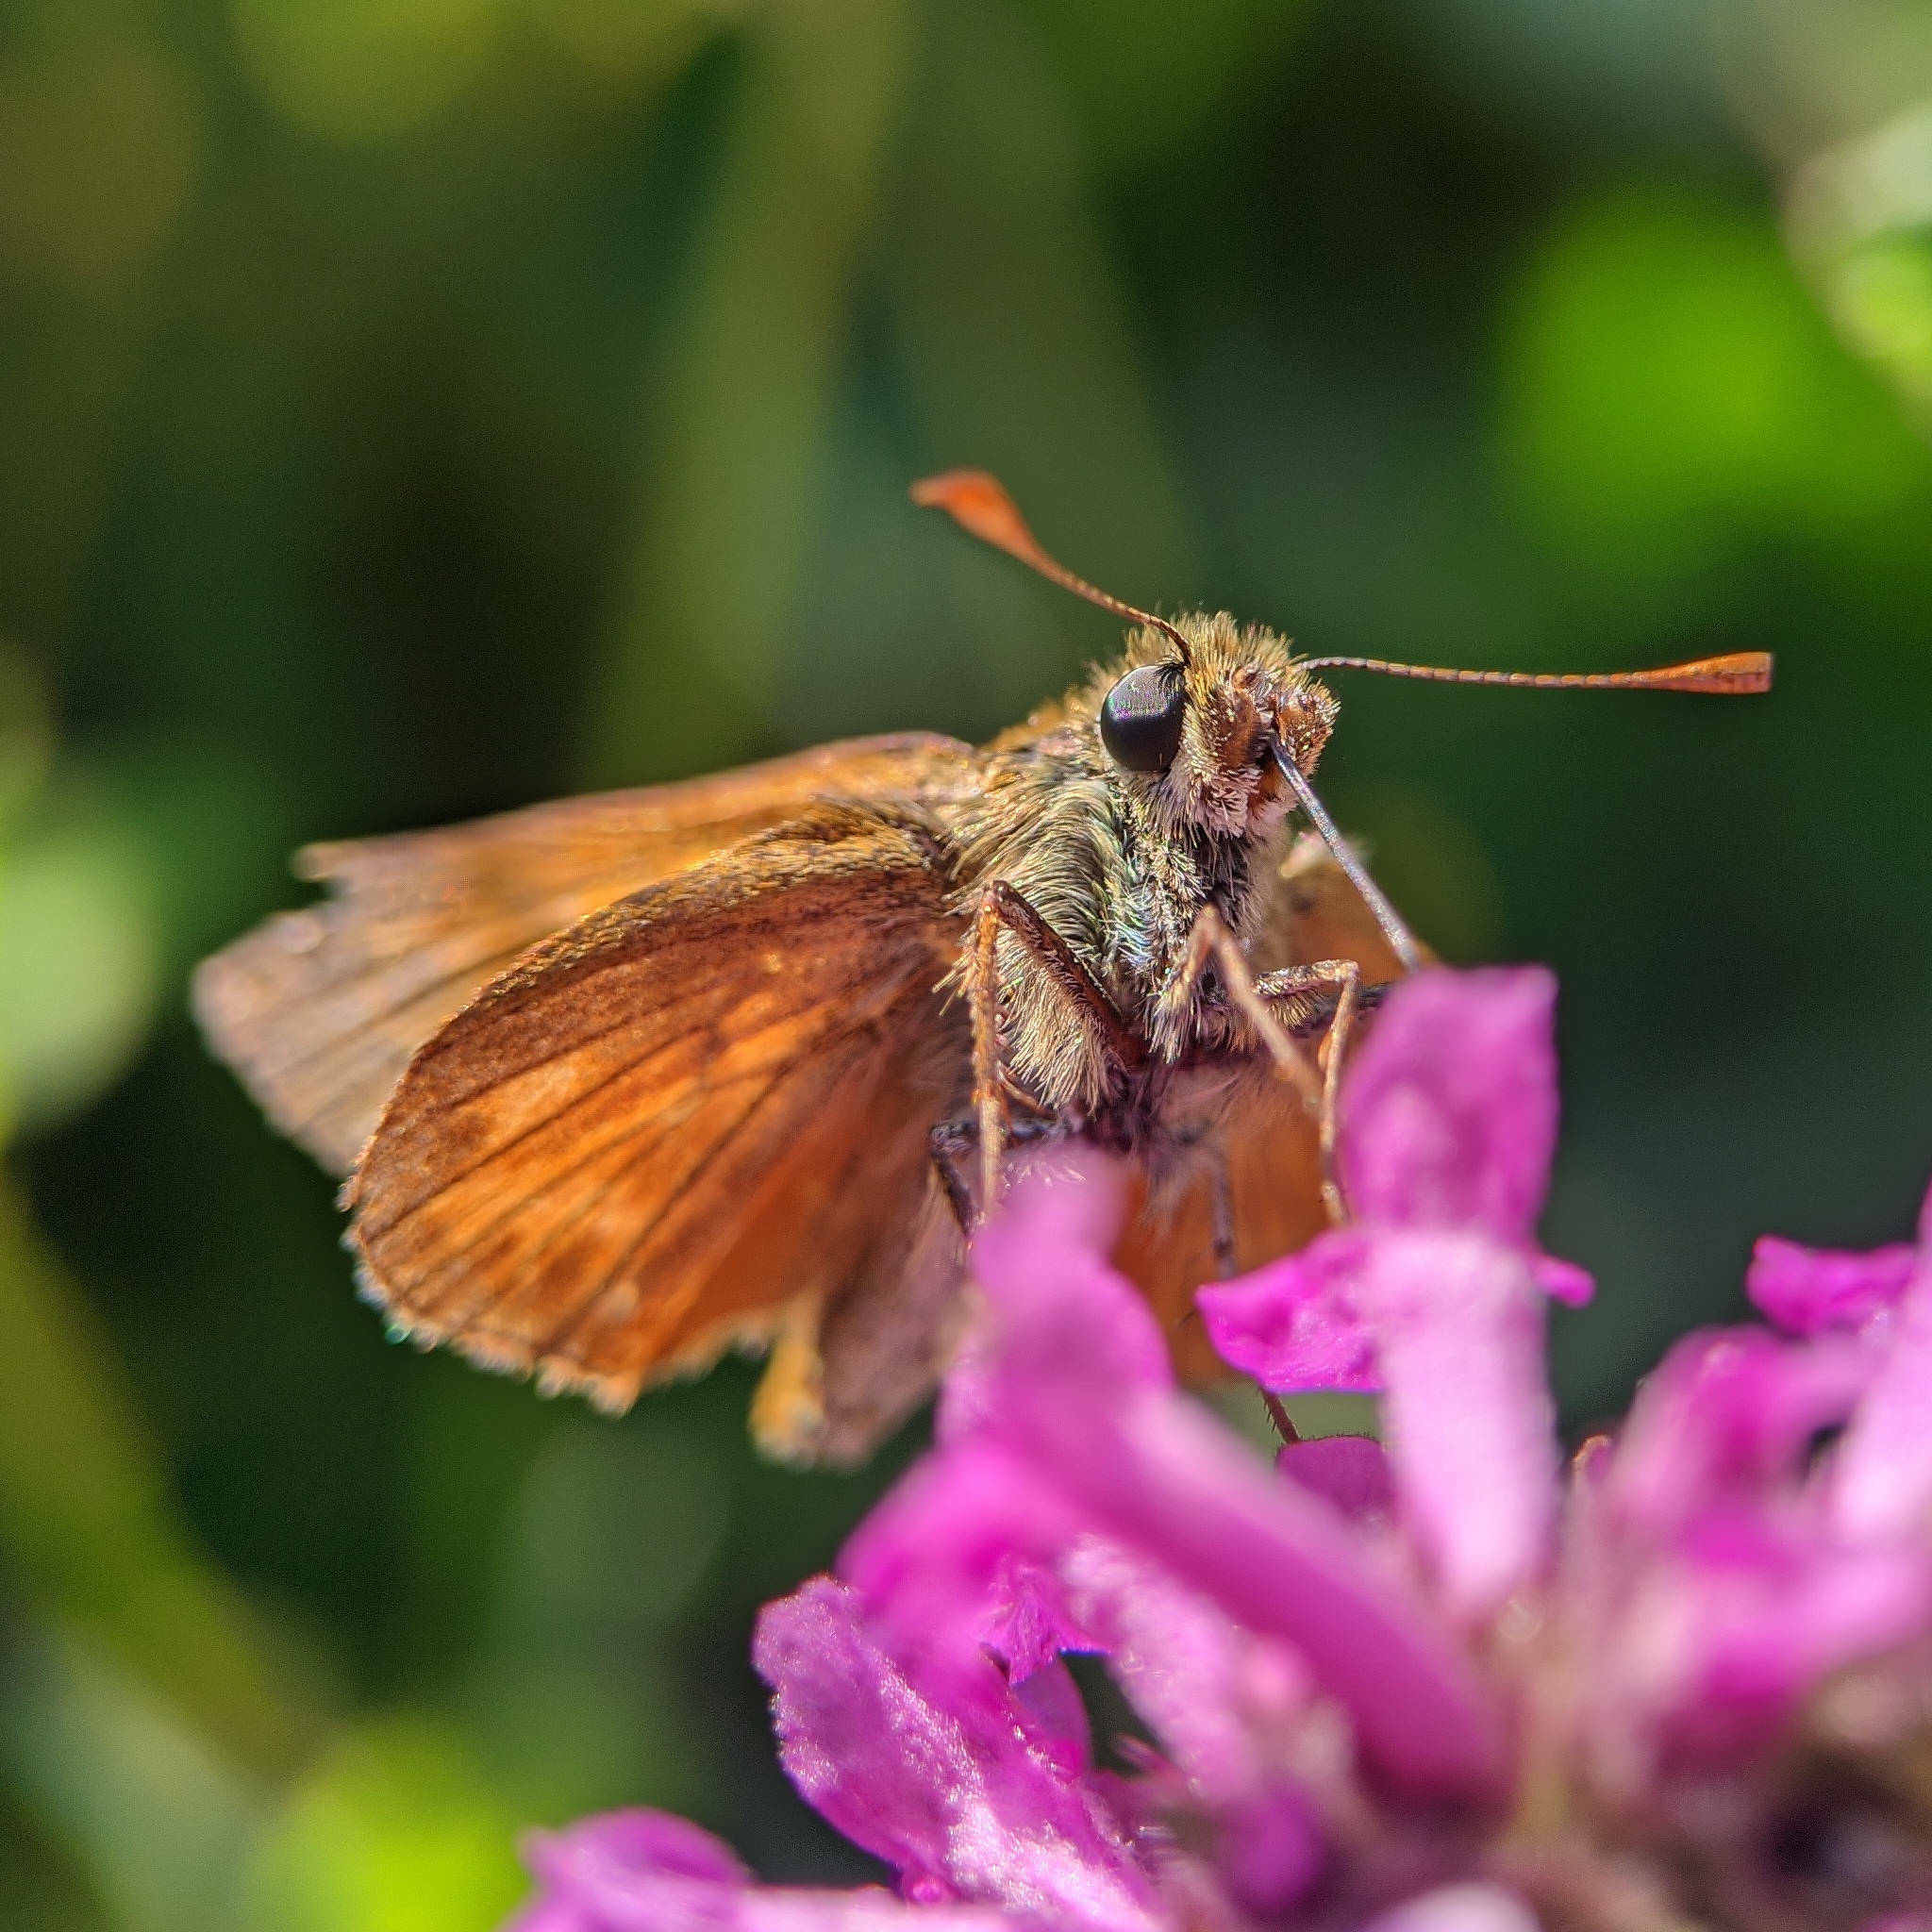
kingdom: Animalia
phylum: Arthropoda
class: Insecta
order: Lepidoptera
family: Hesperiidae
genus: Ochlodes
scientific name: Ochlodes venata
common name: Large skipper
